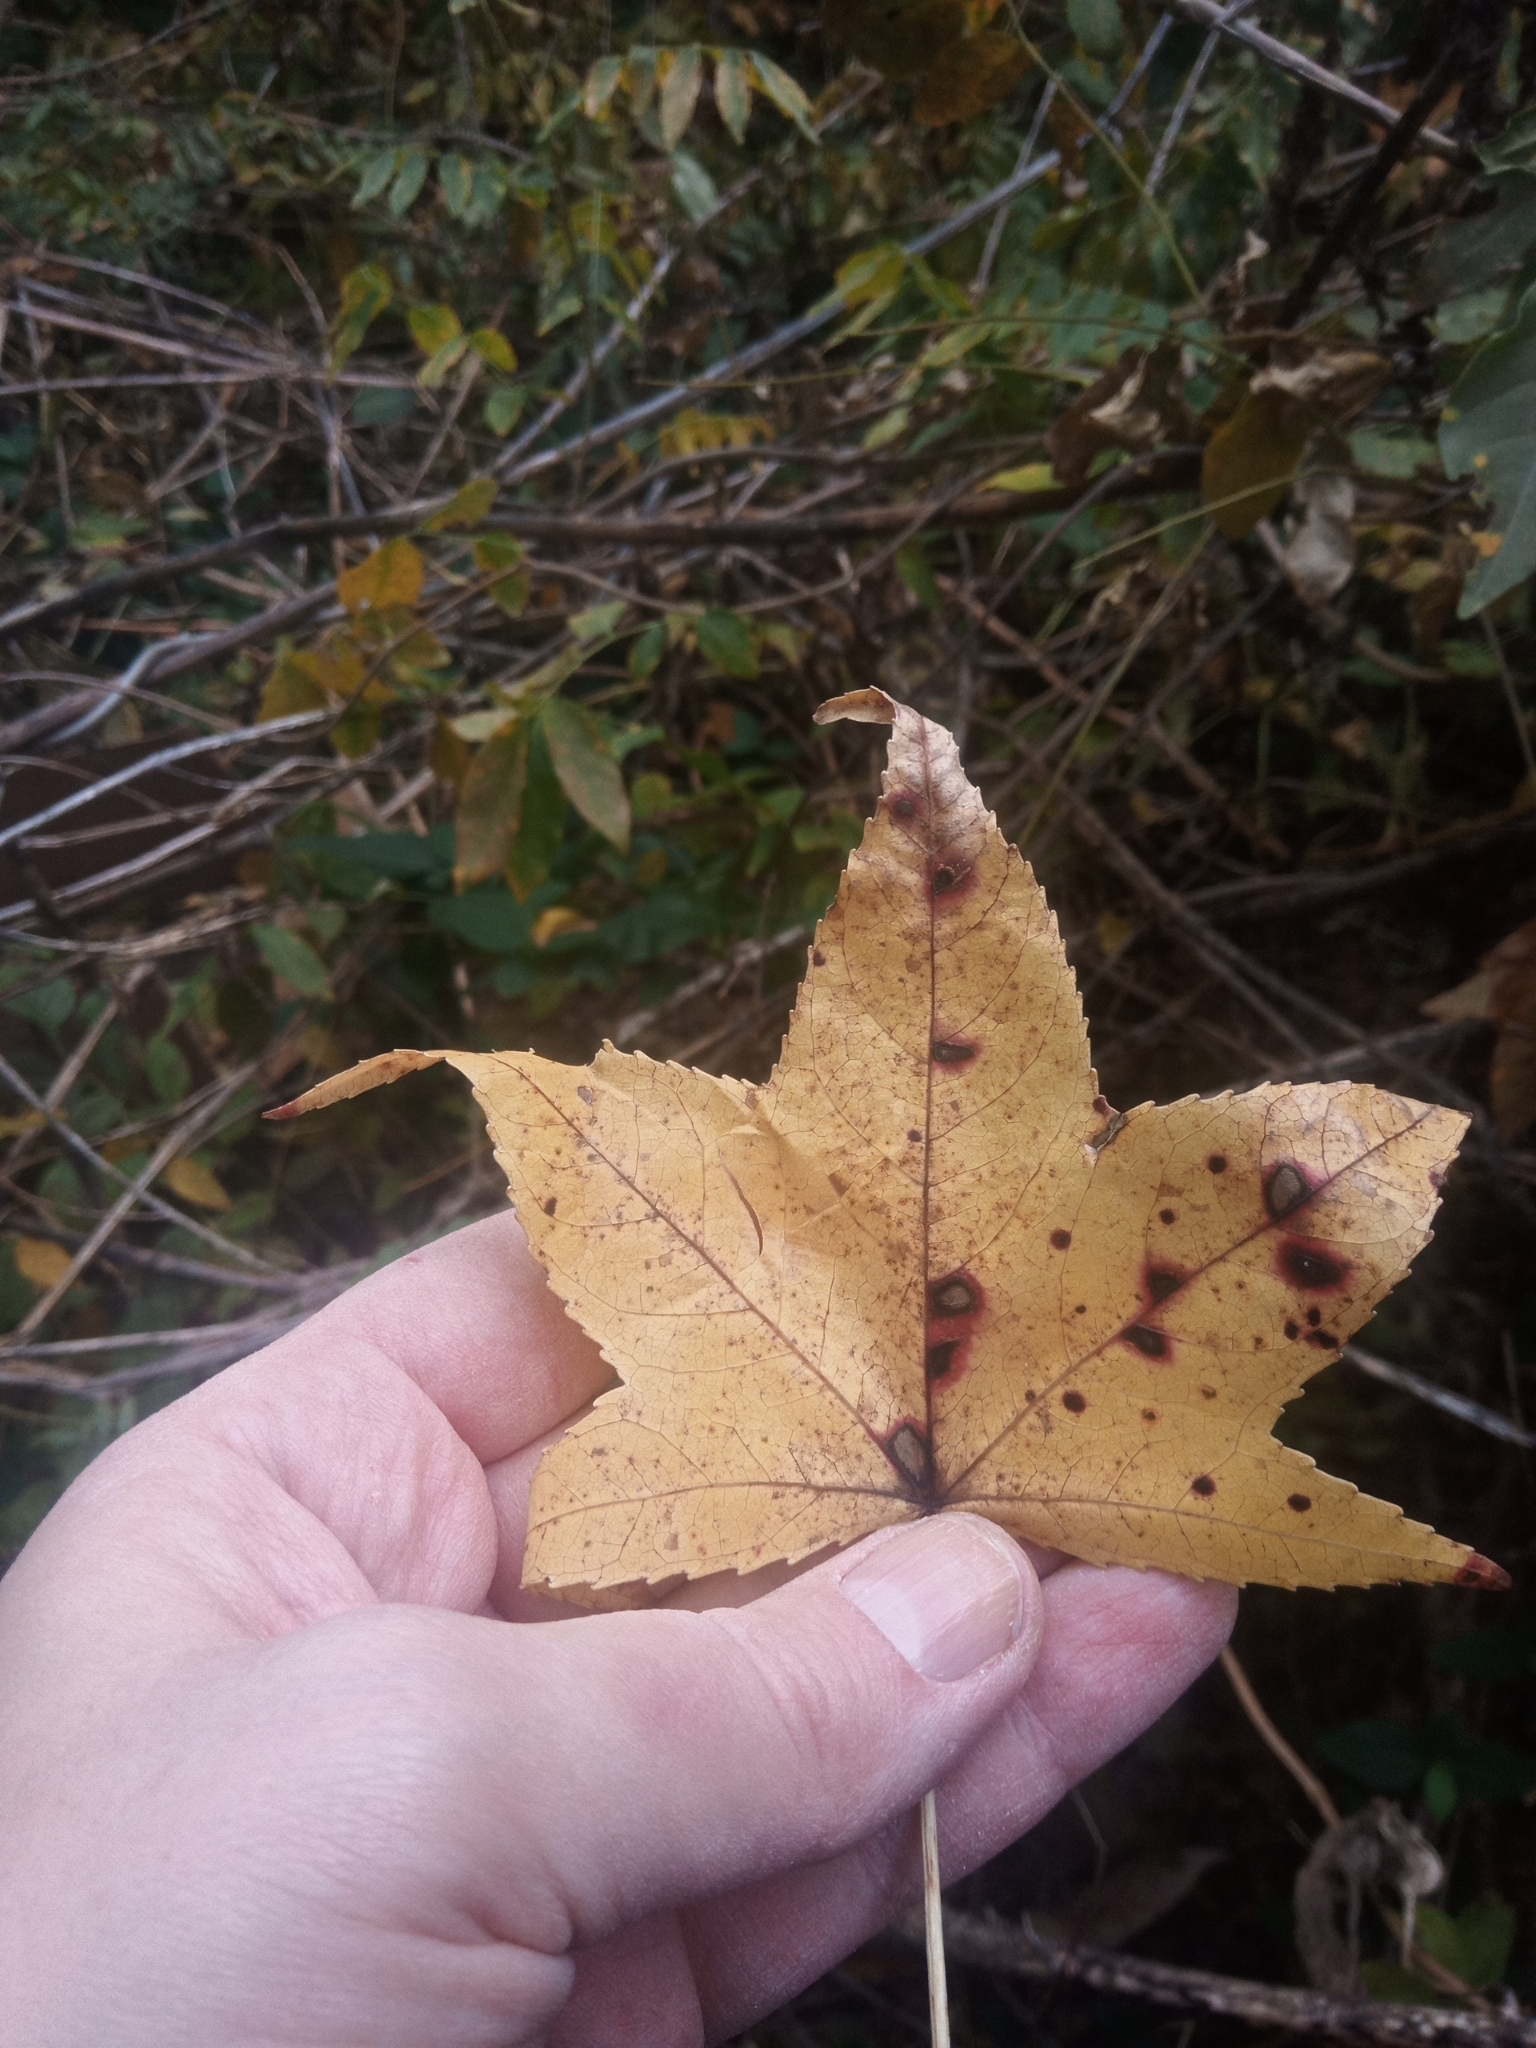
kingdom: Plantae
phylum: Tracheophyta
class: Magnoliopsida
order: Saxifragales
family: Altingiaceae
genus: Liquidambar
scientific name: Liquidambar styraciflua
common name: Sweet gum
